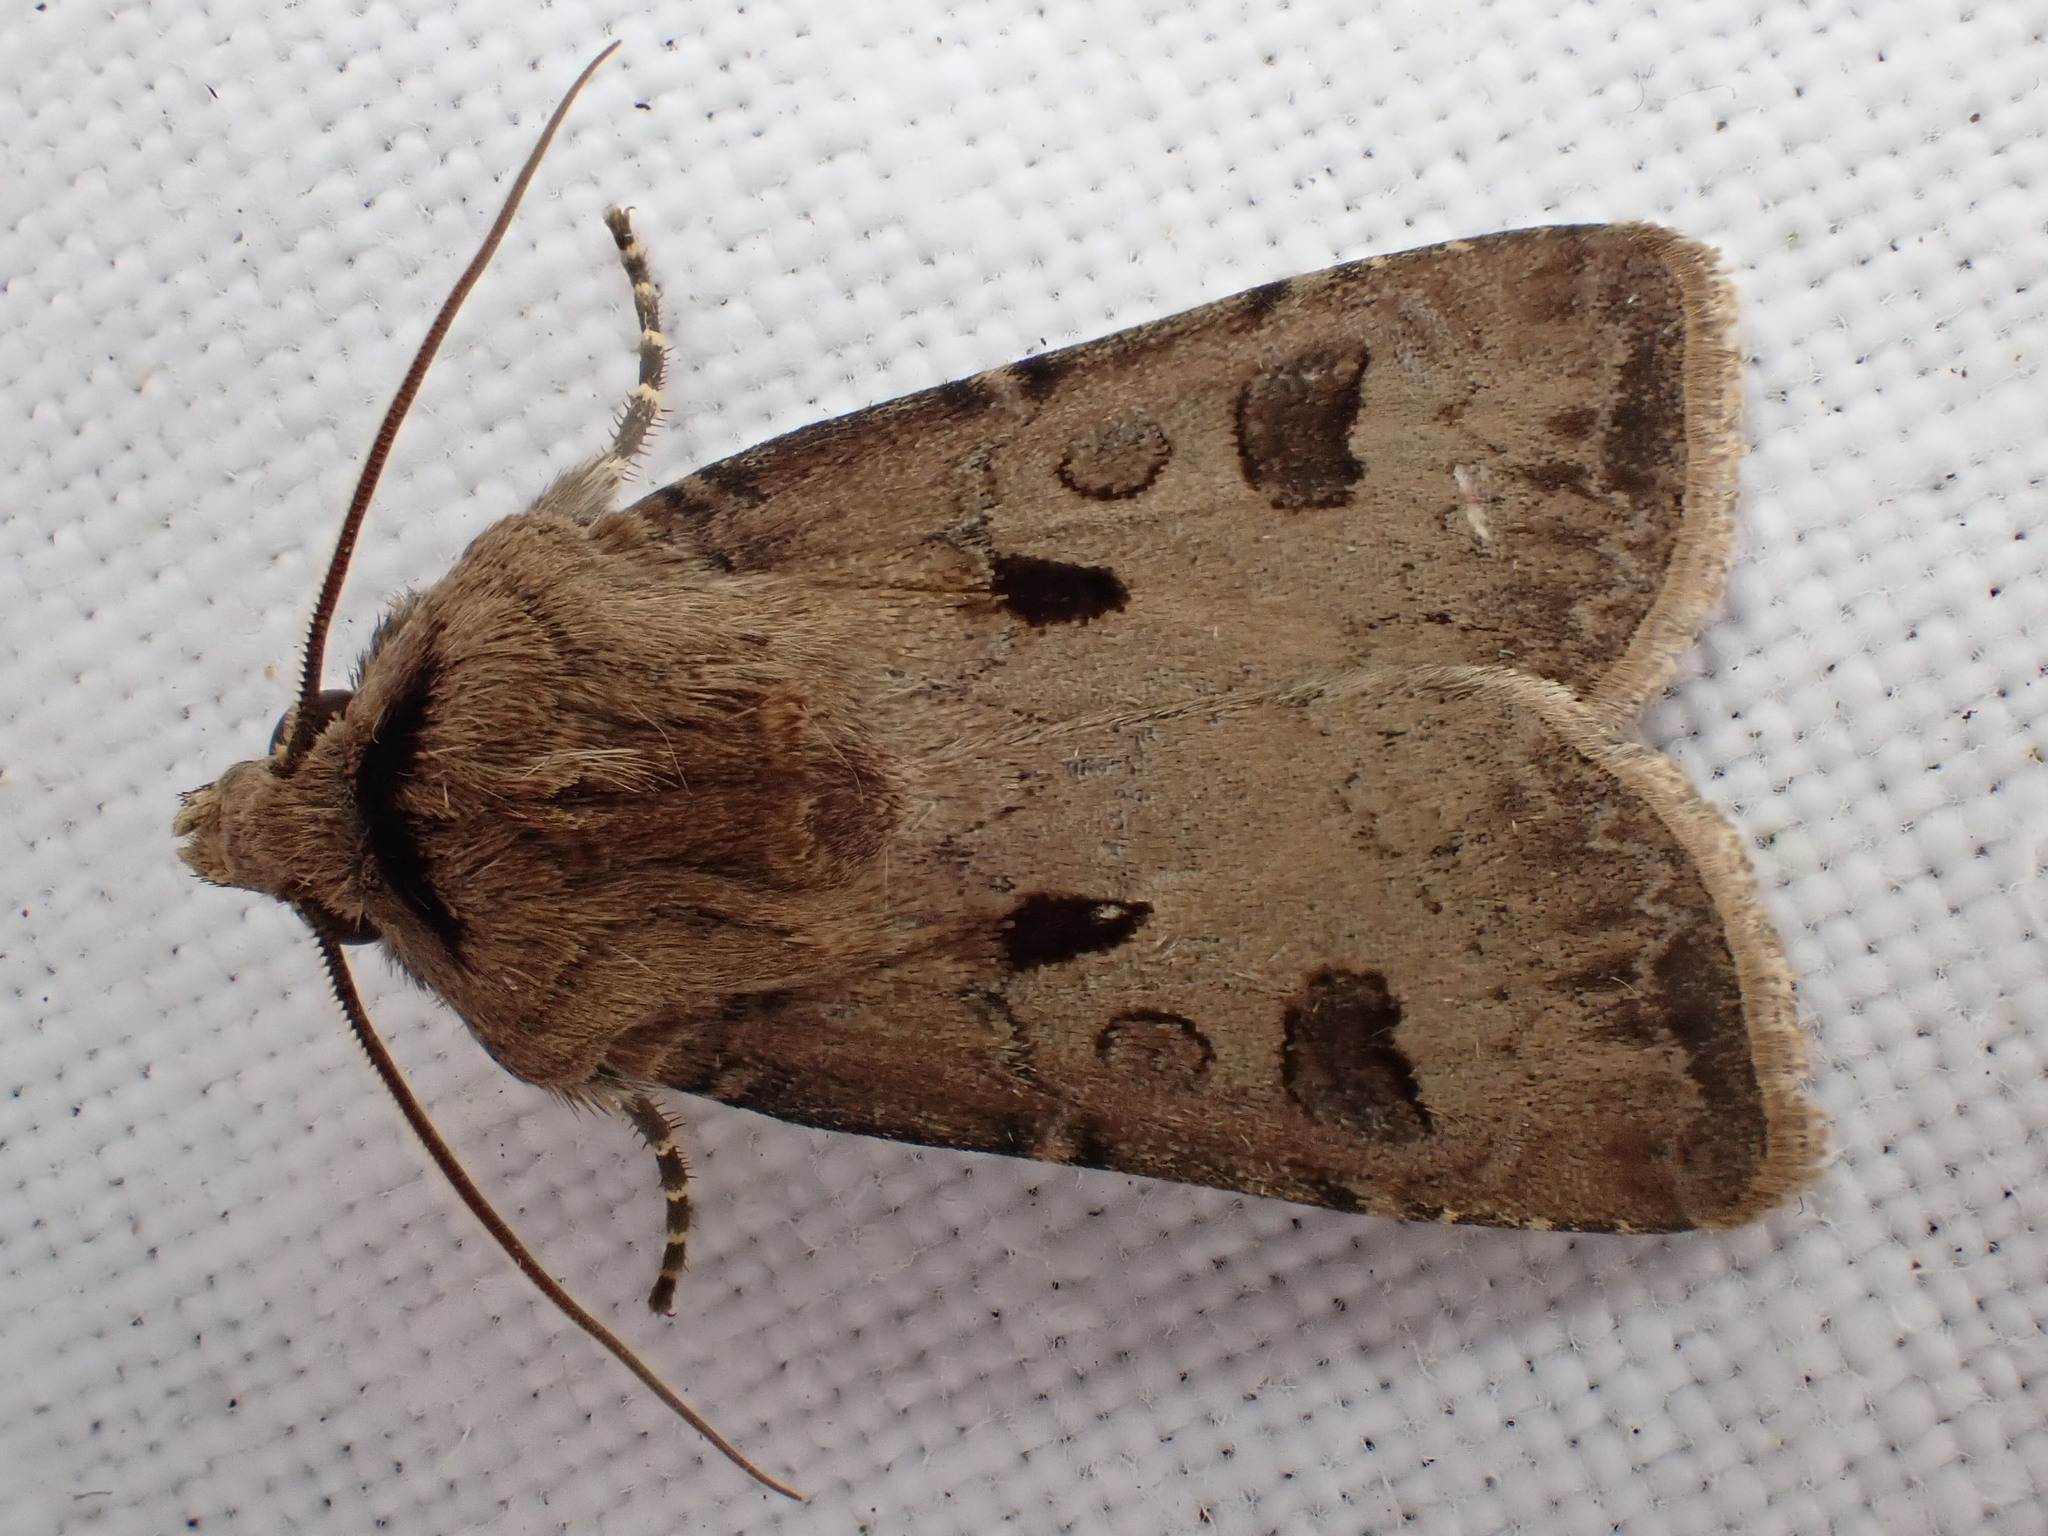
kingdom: Animalia
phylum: Arthropoda
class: Insecta
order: Lepidoptera
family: Noctuidae
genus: Agrotis
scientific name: Agrotis exclamationis
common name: Heart and dart
